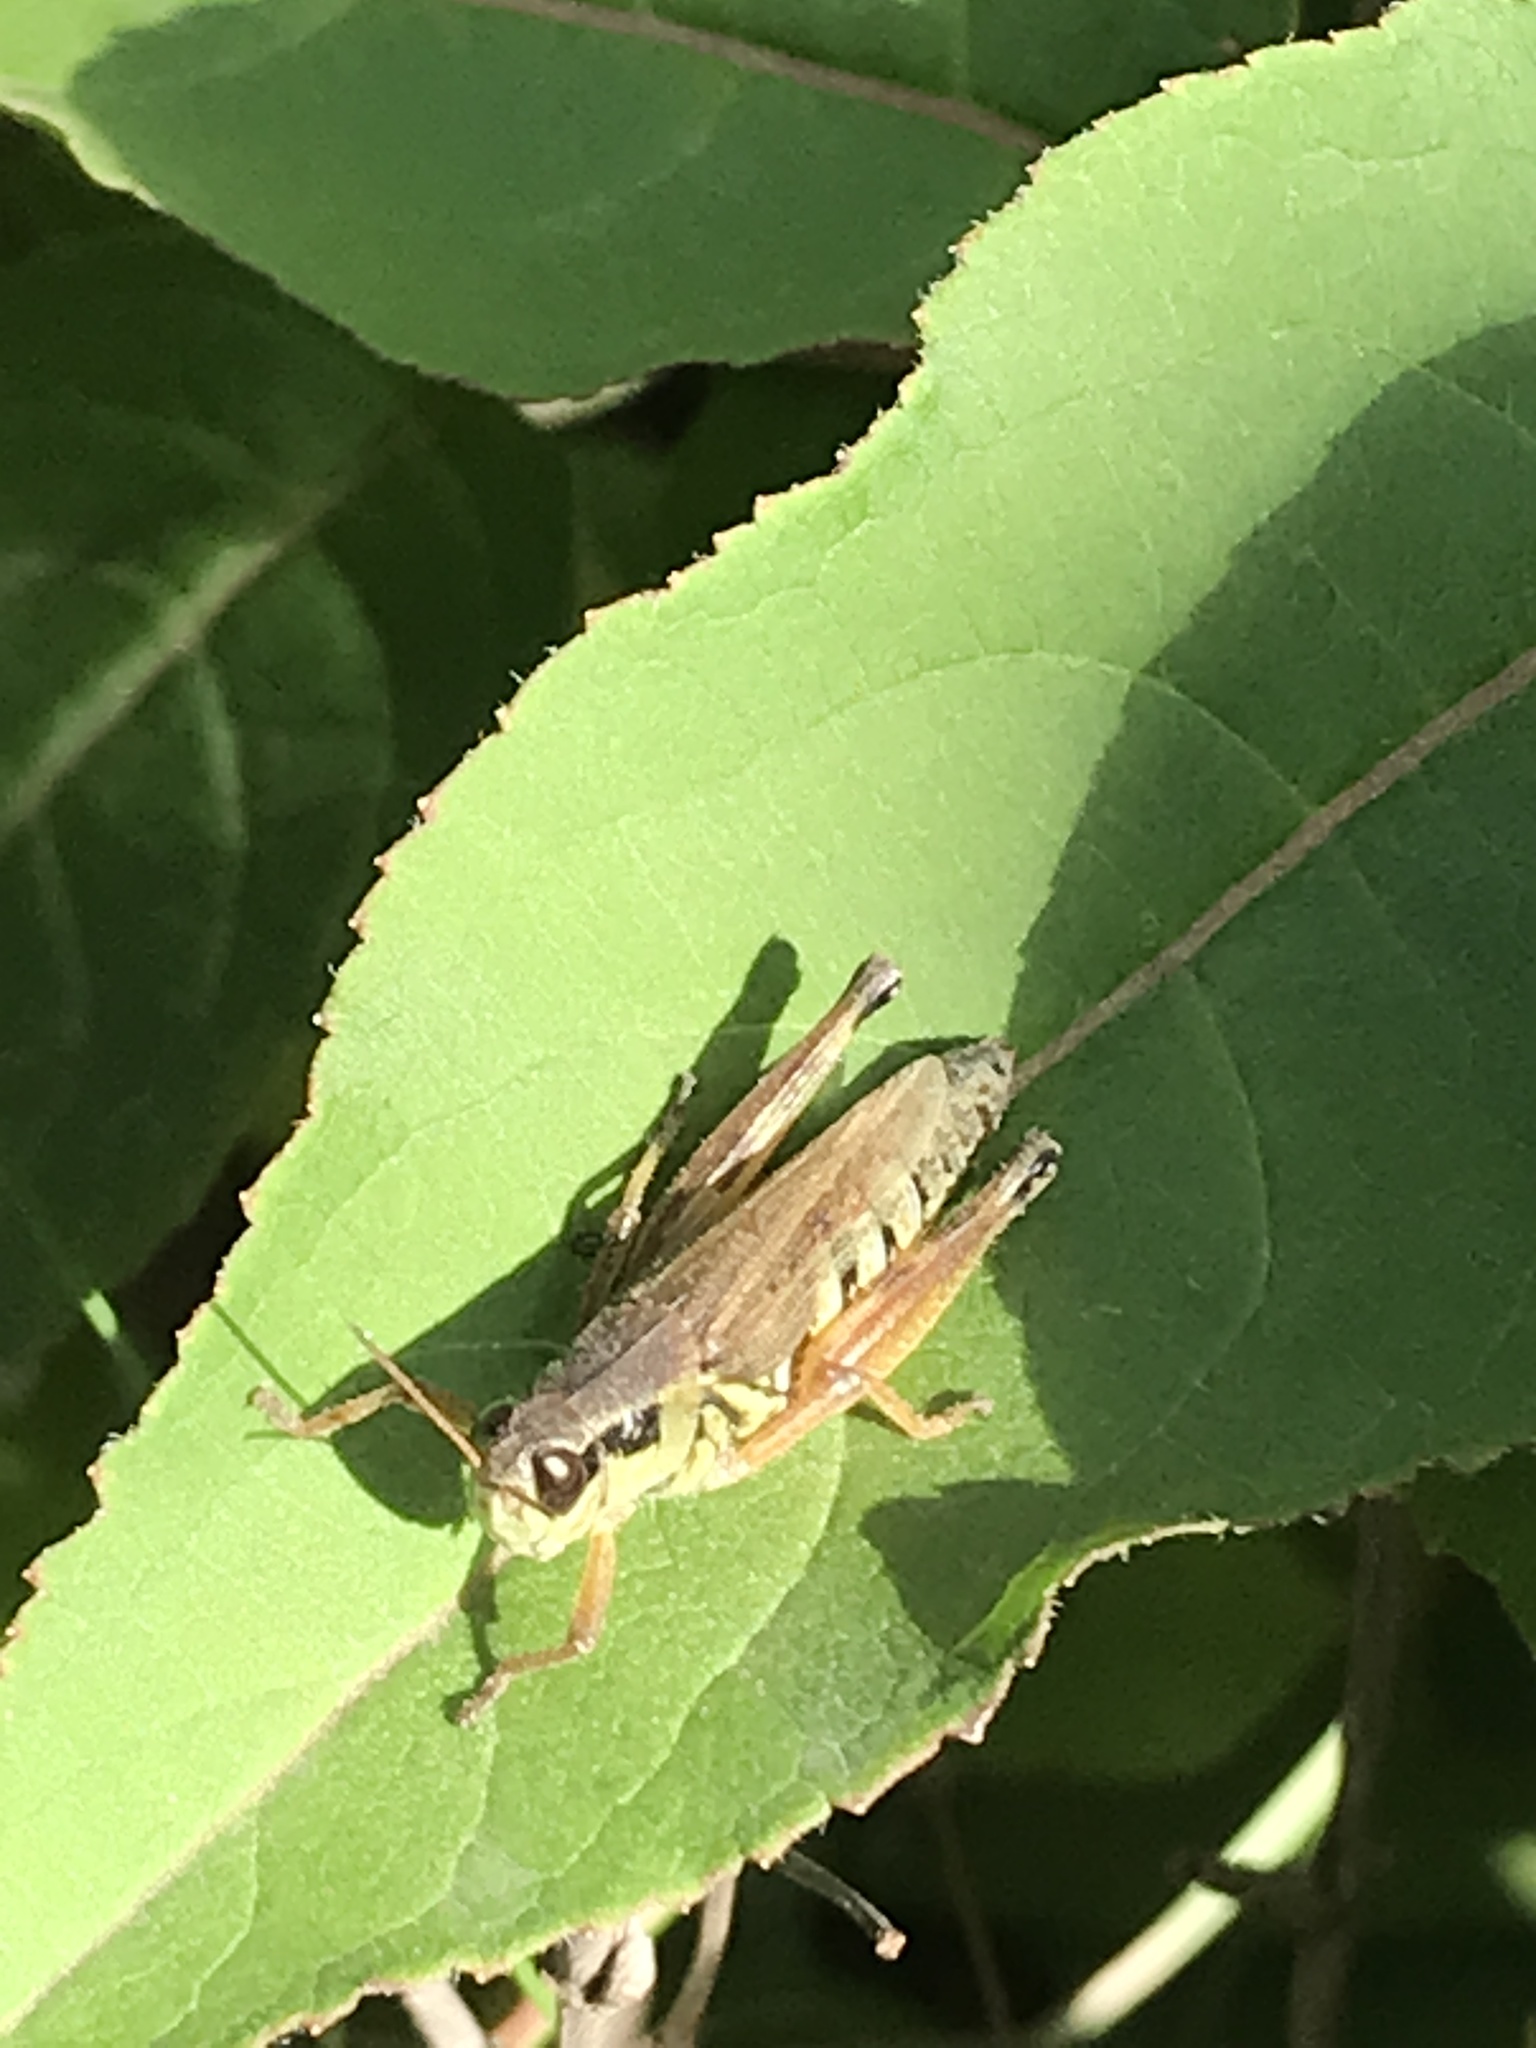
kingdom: Animalia
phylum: Arthropoda
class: Insecta
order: Orthoptera
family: Acrididae
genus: Melanoplus
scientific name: Melanoplus borealis
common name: Northern grasshopper
